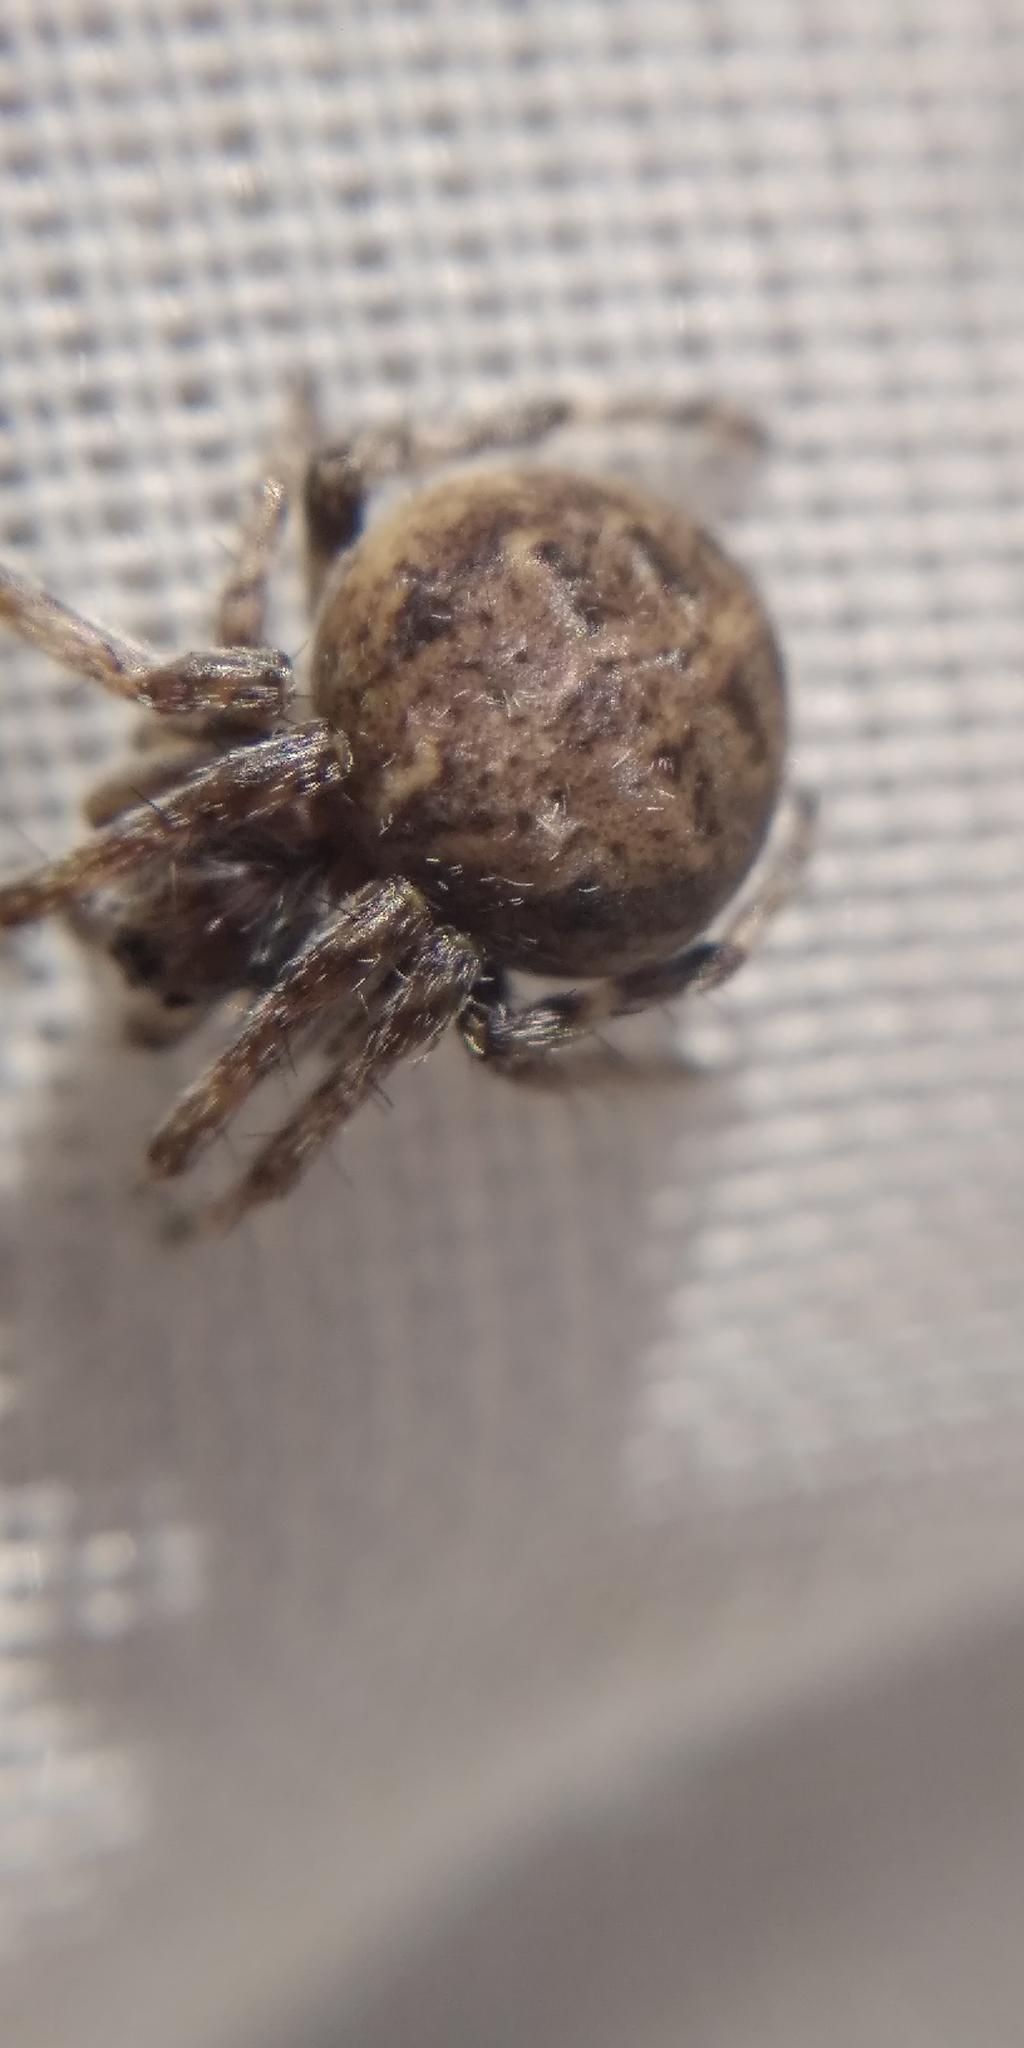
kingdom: Animalia
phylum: Arthropoda
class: Arachnida
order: Araneae
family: Araneidae
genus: Agalenatea
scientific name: Agalenatea redii
